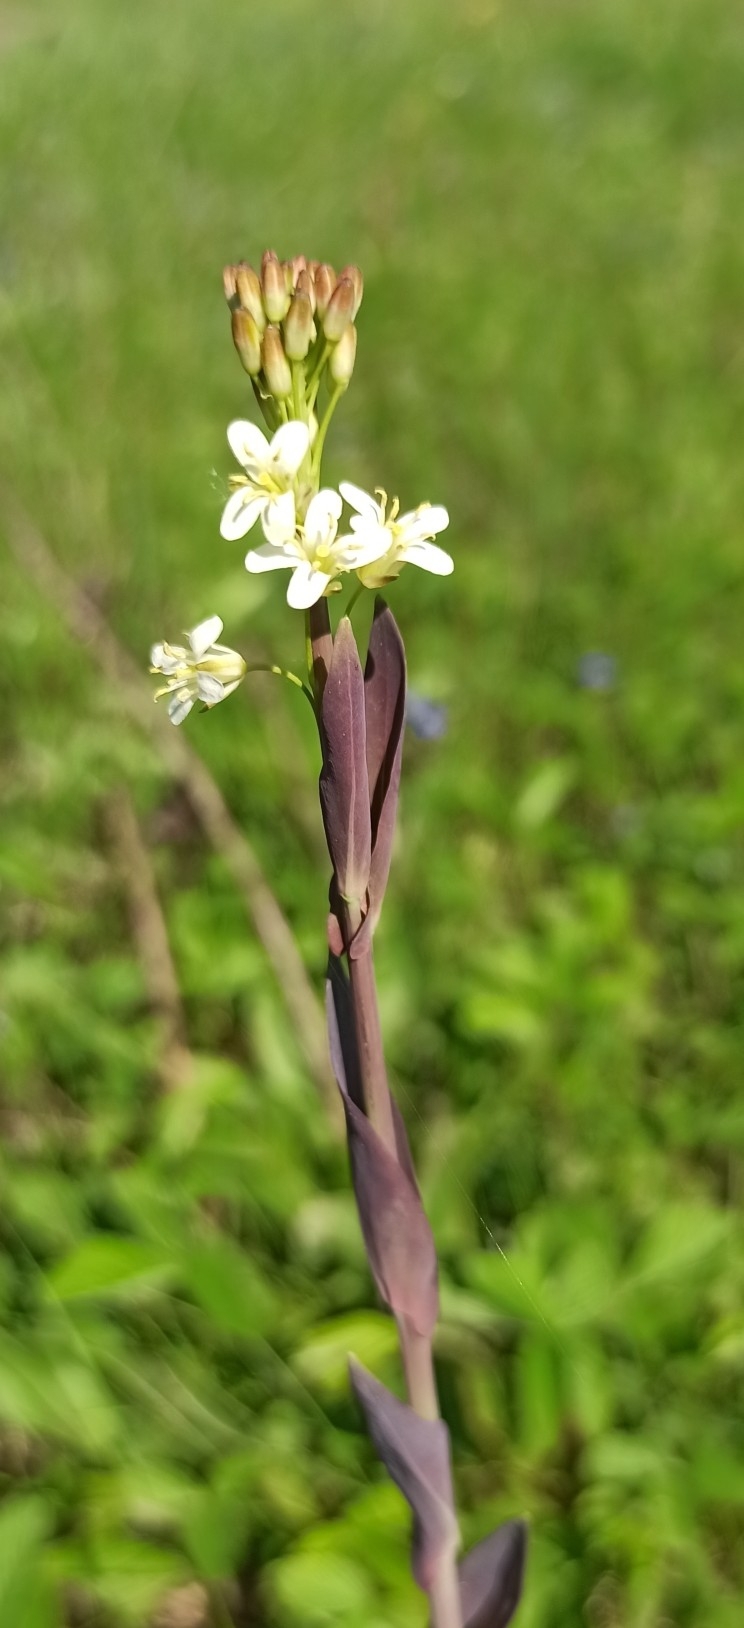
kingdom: Plantae
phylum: Tracheophyta
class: Magnoliopsida
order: Brassicales
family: Brassicaceae
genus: Turritis
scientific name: Turritis glabra
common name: Tower rockcress
